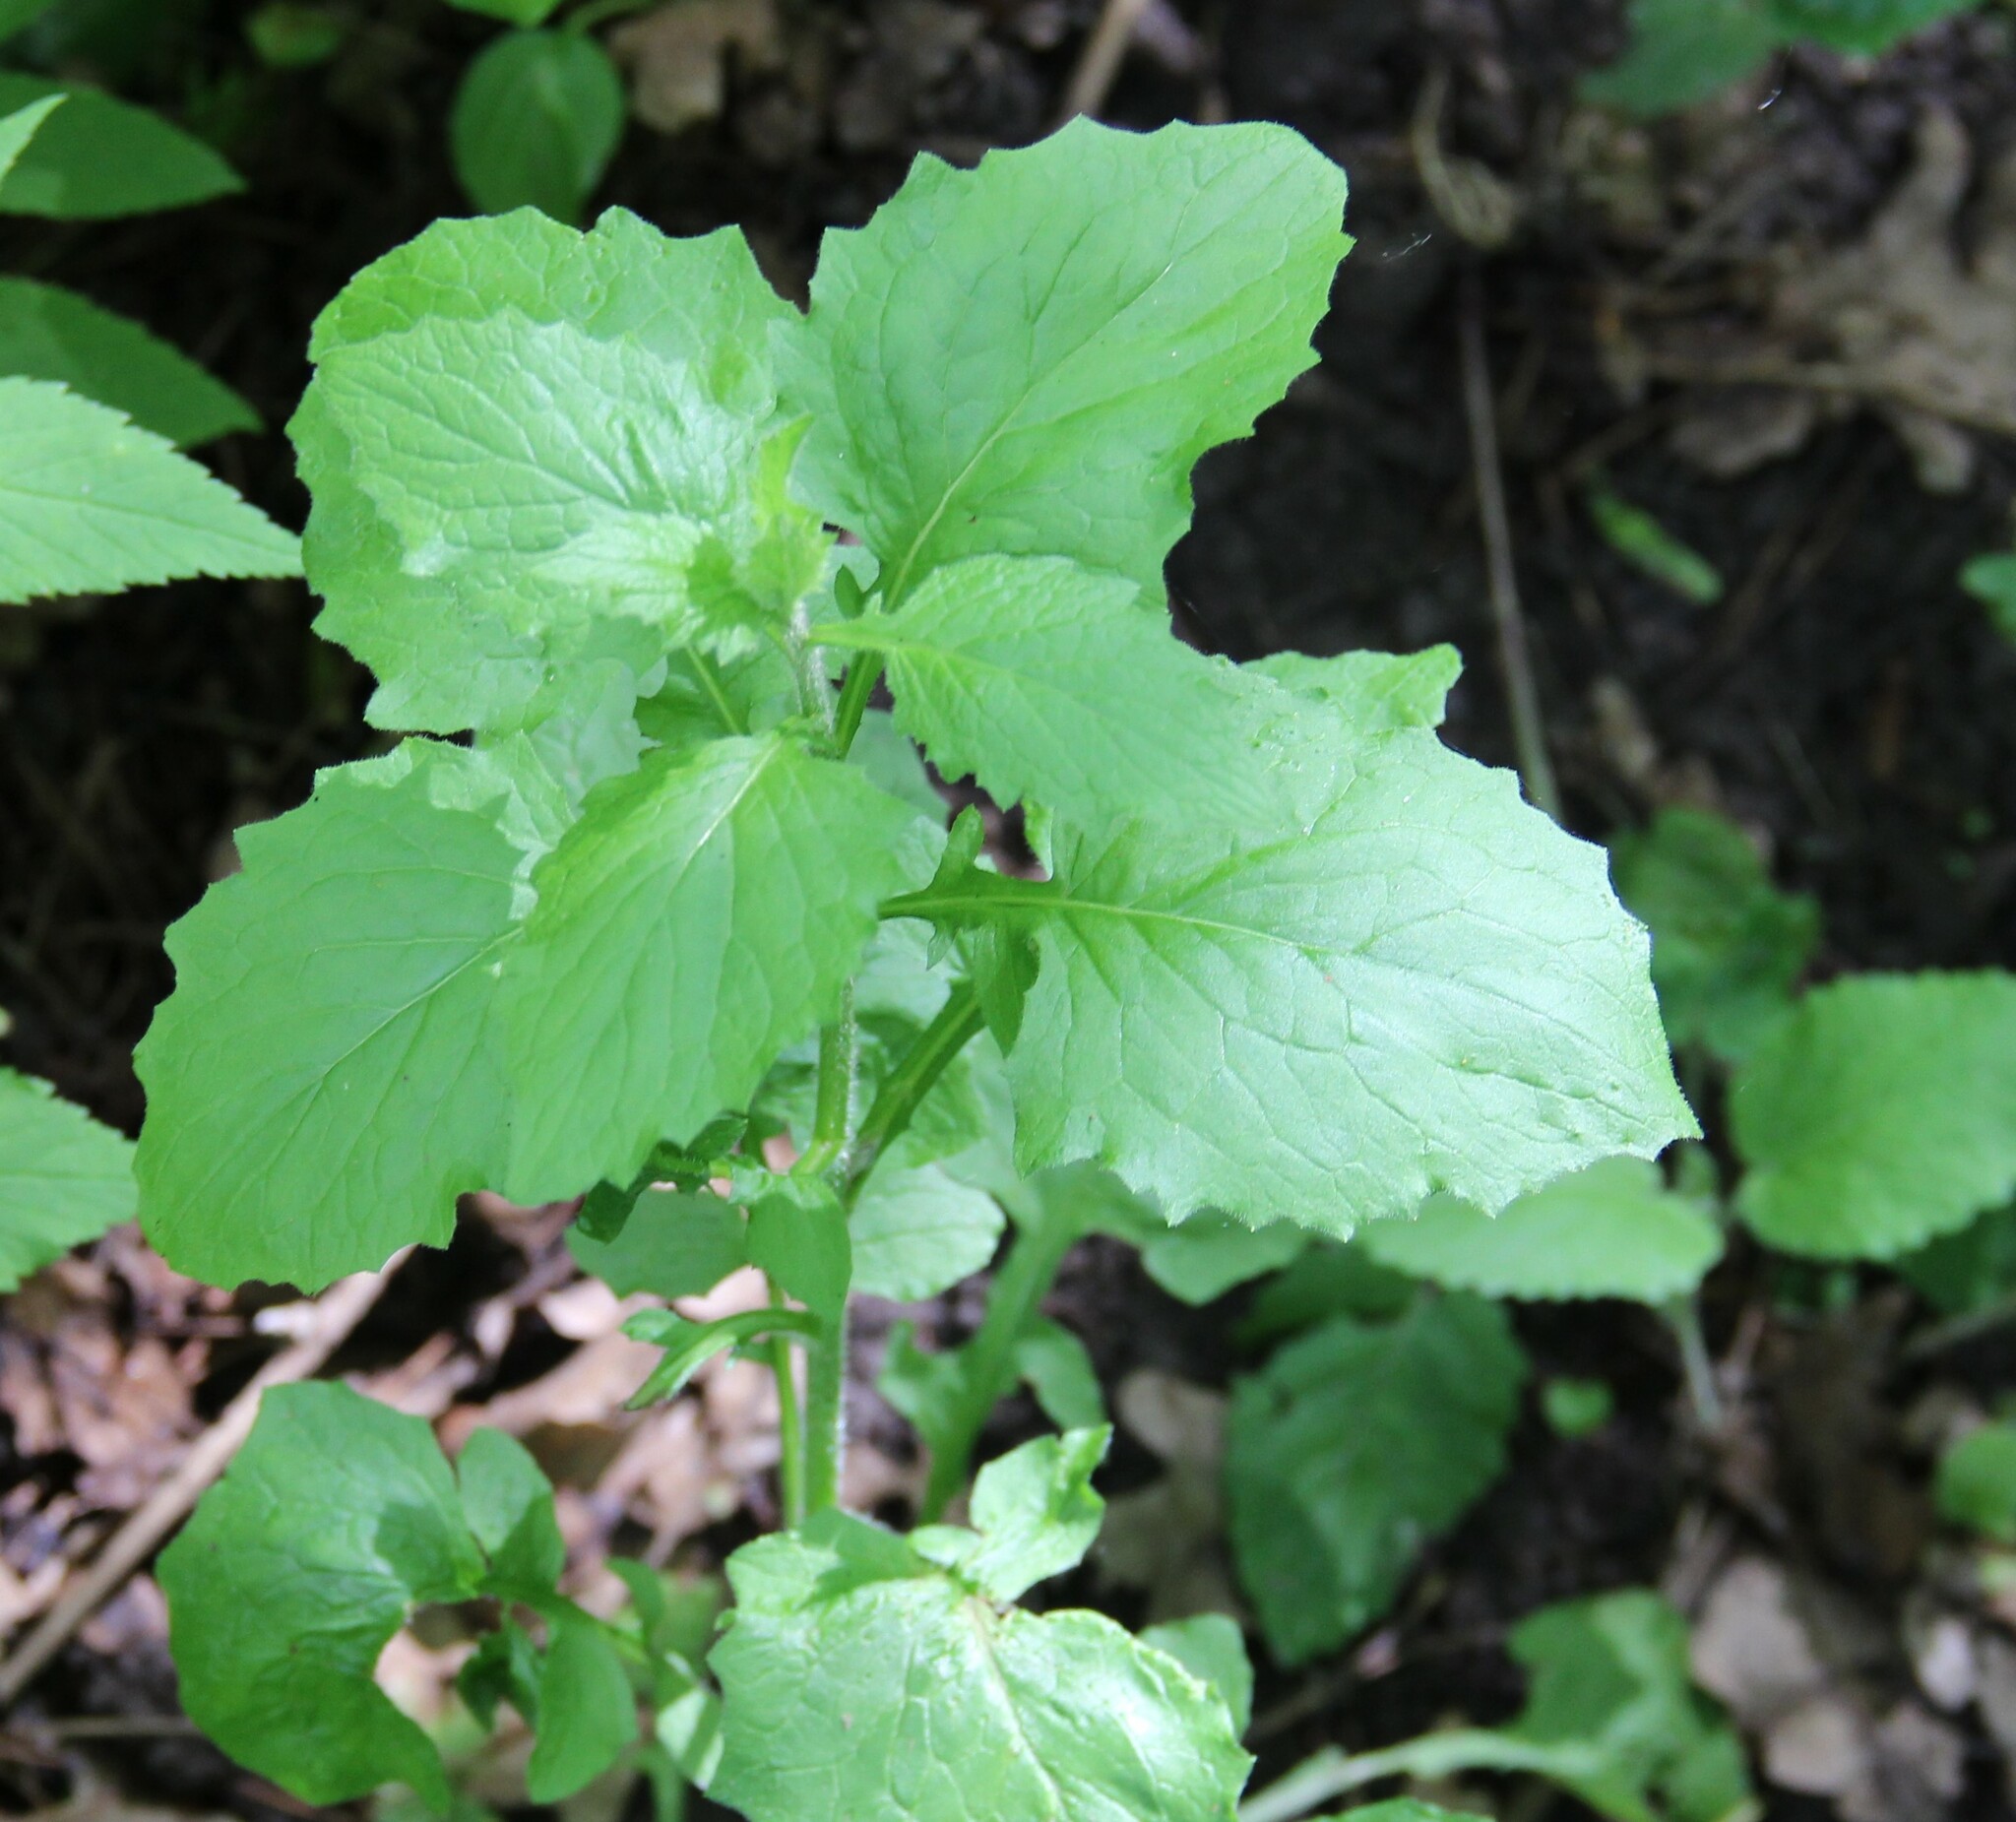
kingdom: Plantae
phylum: Tracheophyta
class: Magnoliopsida
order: Asterales
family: Asteraceae
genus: Lapsana
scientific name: Lapsana communis
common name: Nipplewort
